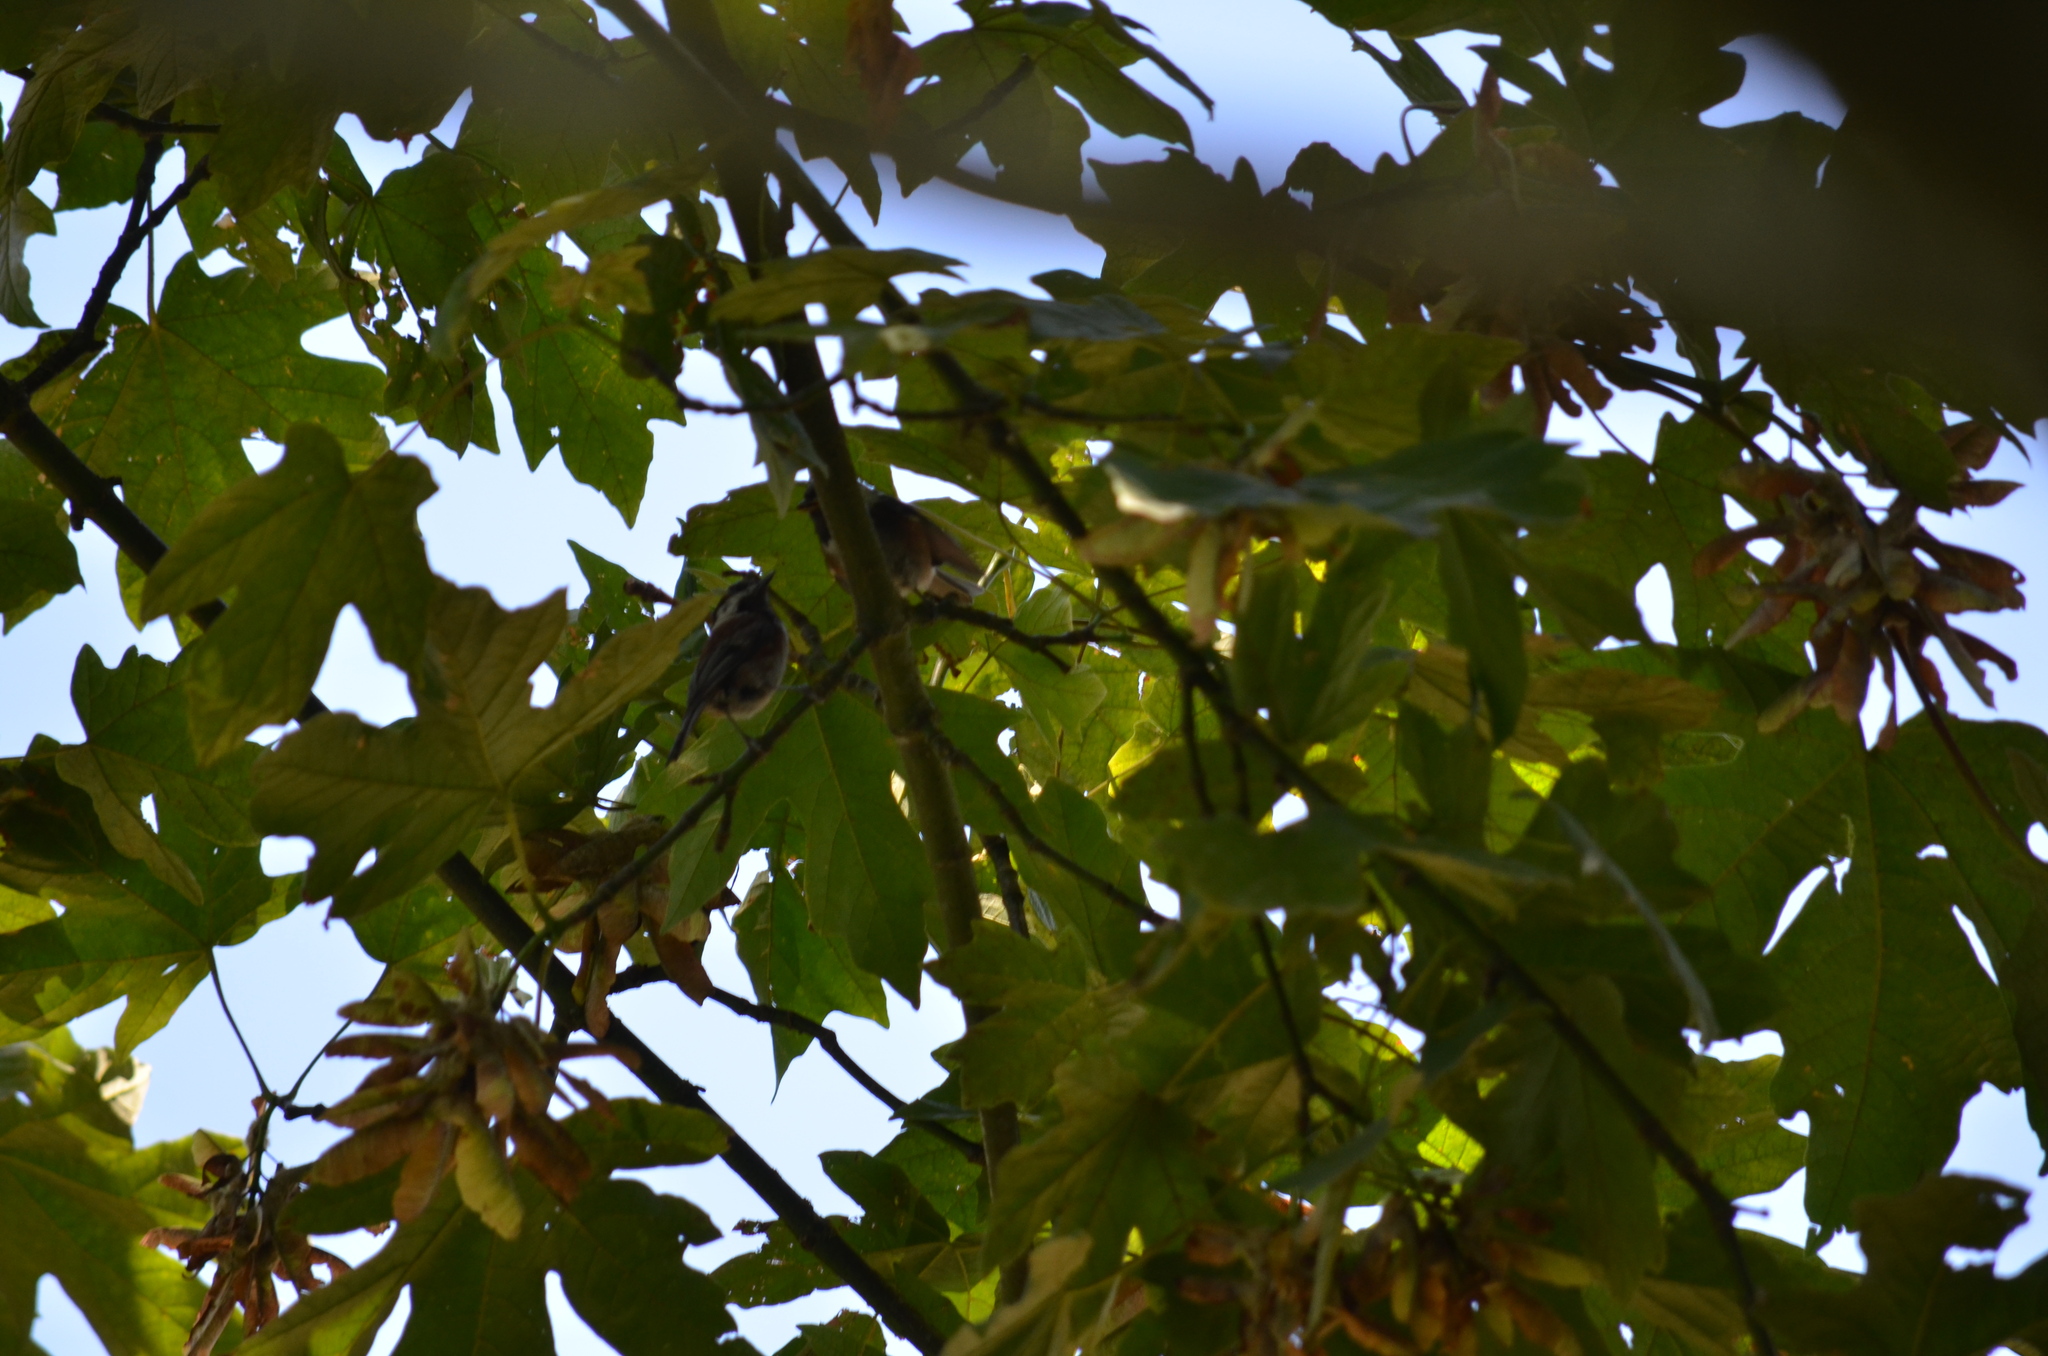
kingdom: Animalia
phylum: Chordata
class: Aves
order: Passeriformes
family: Paridae
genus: Poecile
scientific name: Poecile rufescens
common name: Chestnut-backed chickadee
